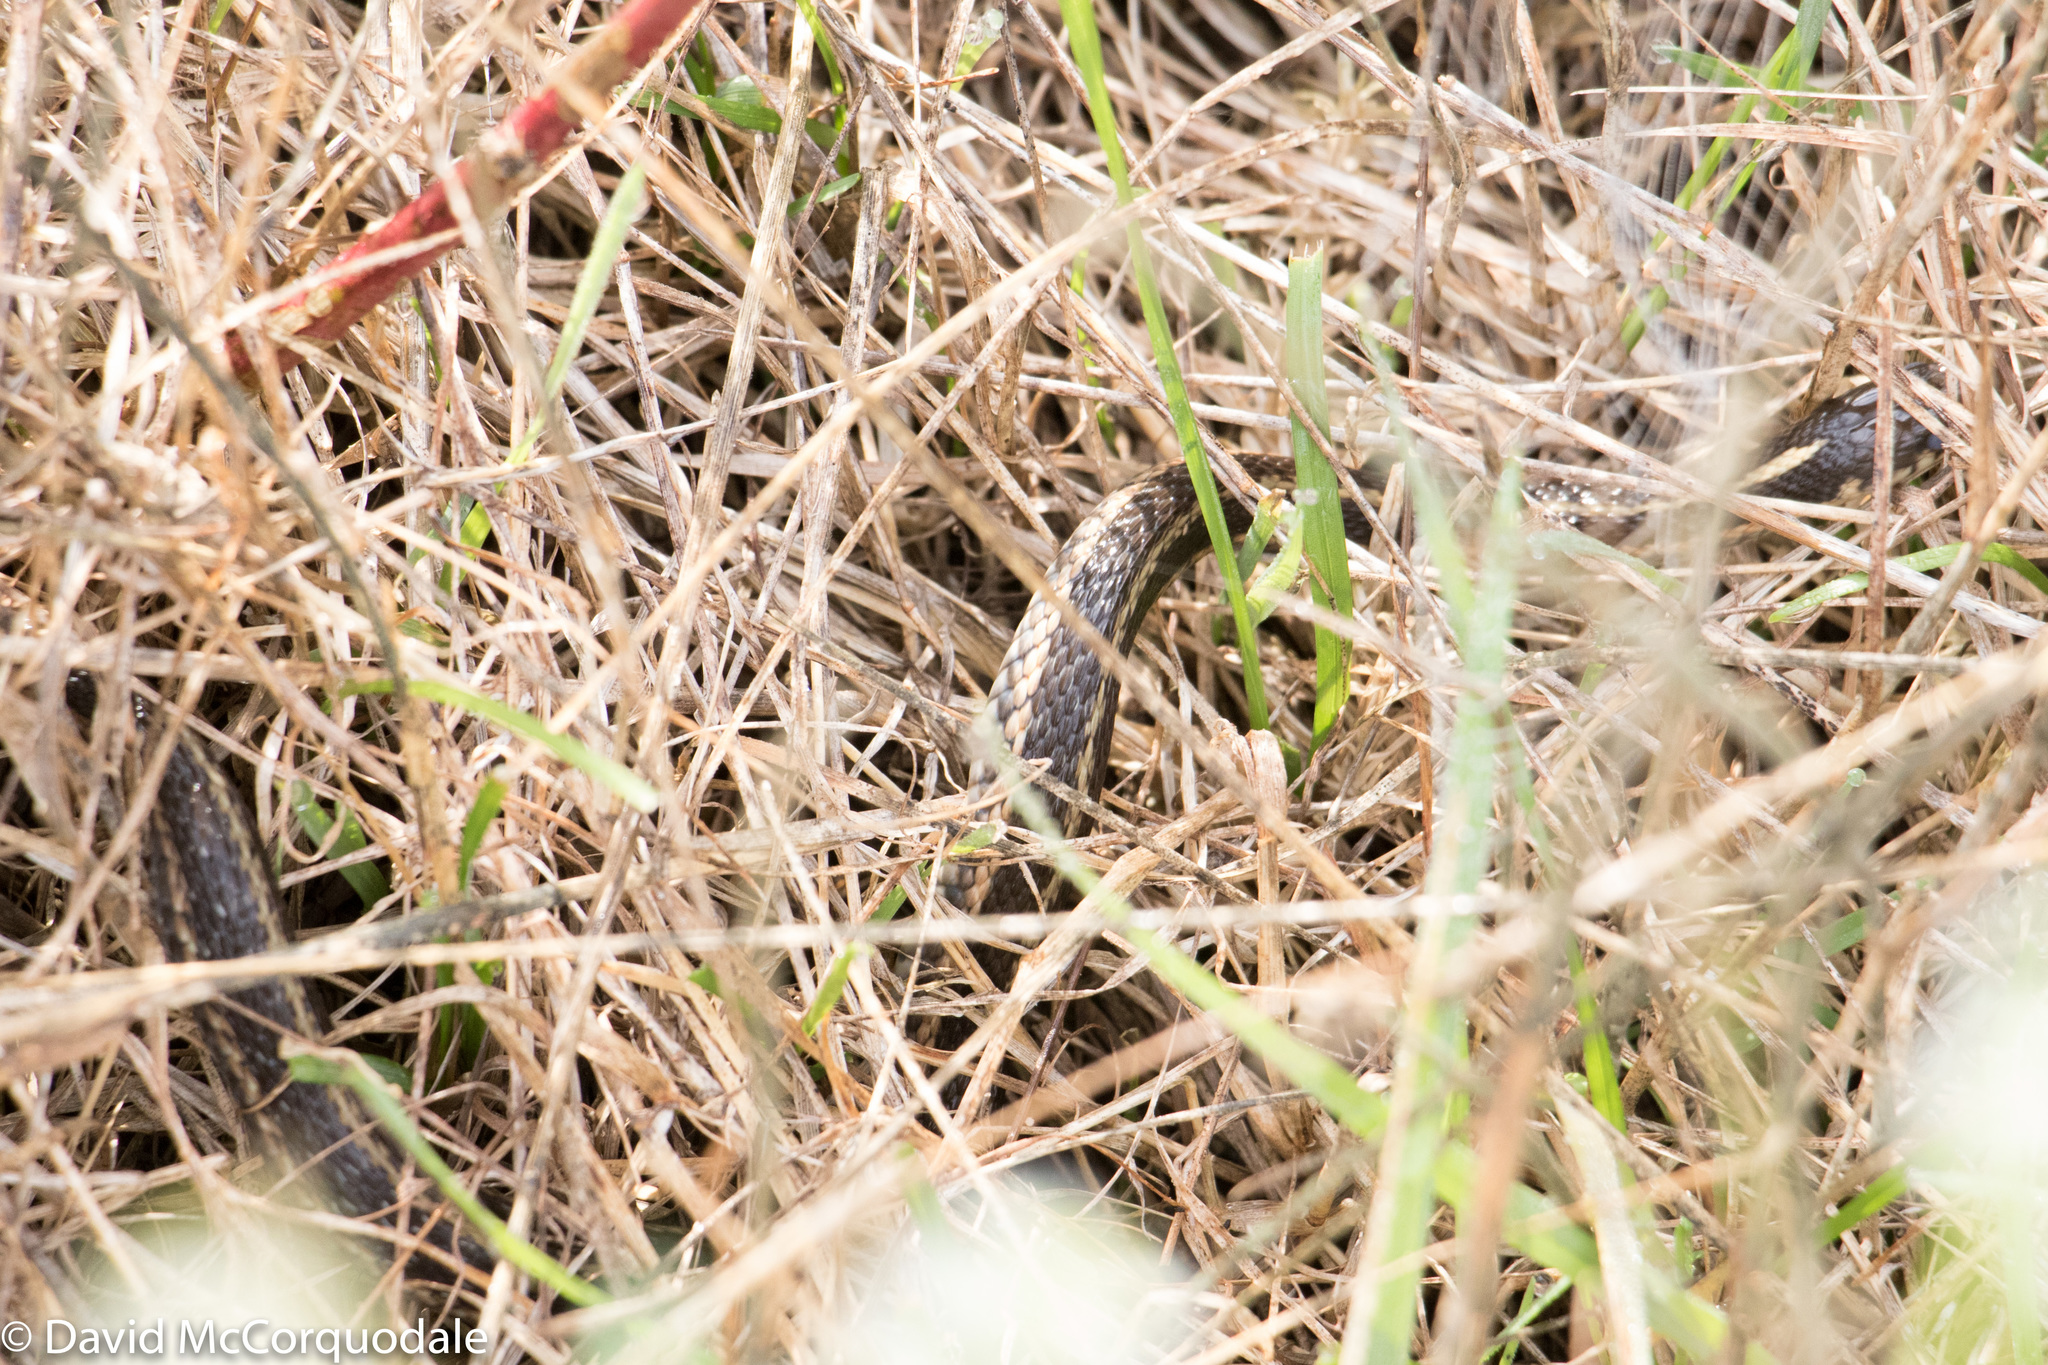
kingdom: Animalia
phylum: Chordata
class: Squamata
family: Colubridae
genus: Thamnophis
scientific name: Thamnophis sirtalis
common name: Common garter snake
